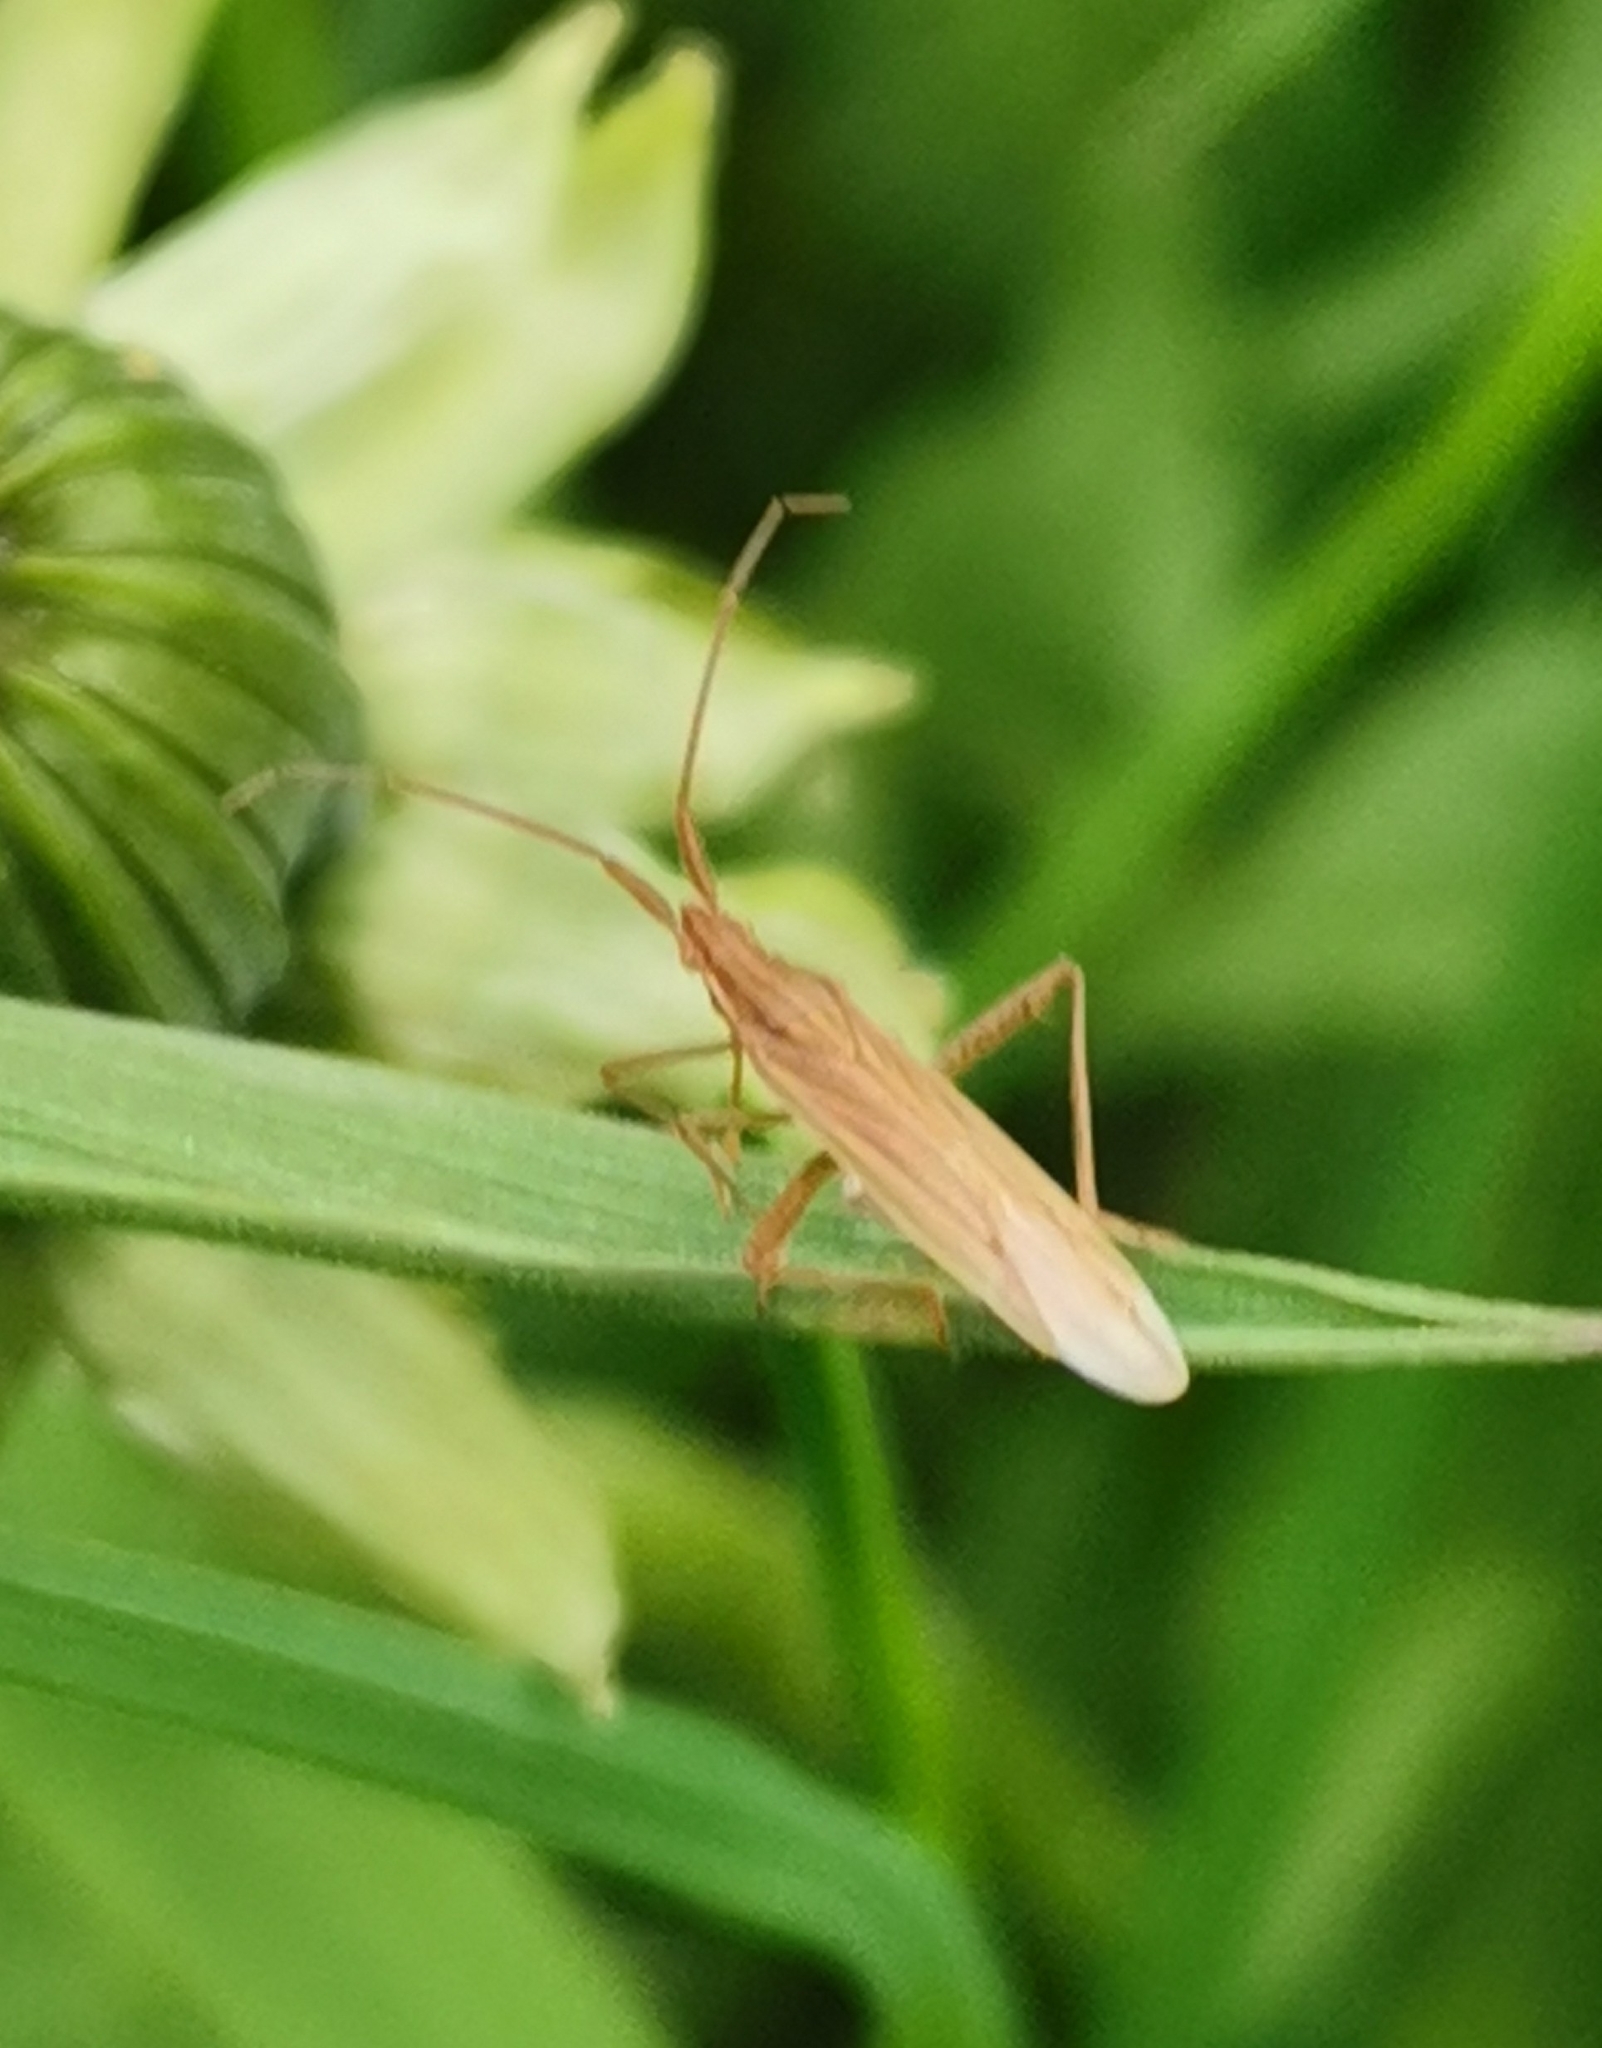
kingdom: Animalia
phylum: Arthropoda
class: Insecta
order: Hemiptera
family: Miridae
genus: Stenodema
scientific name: Stenodema calcarata
